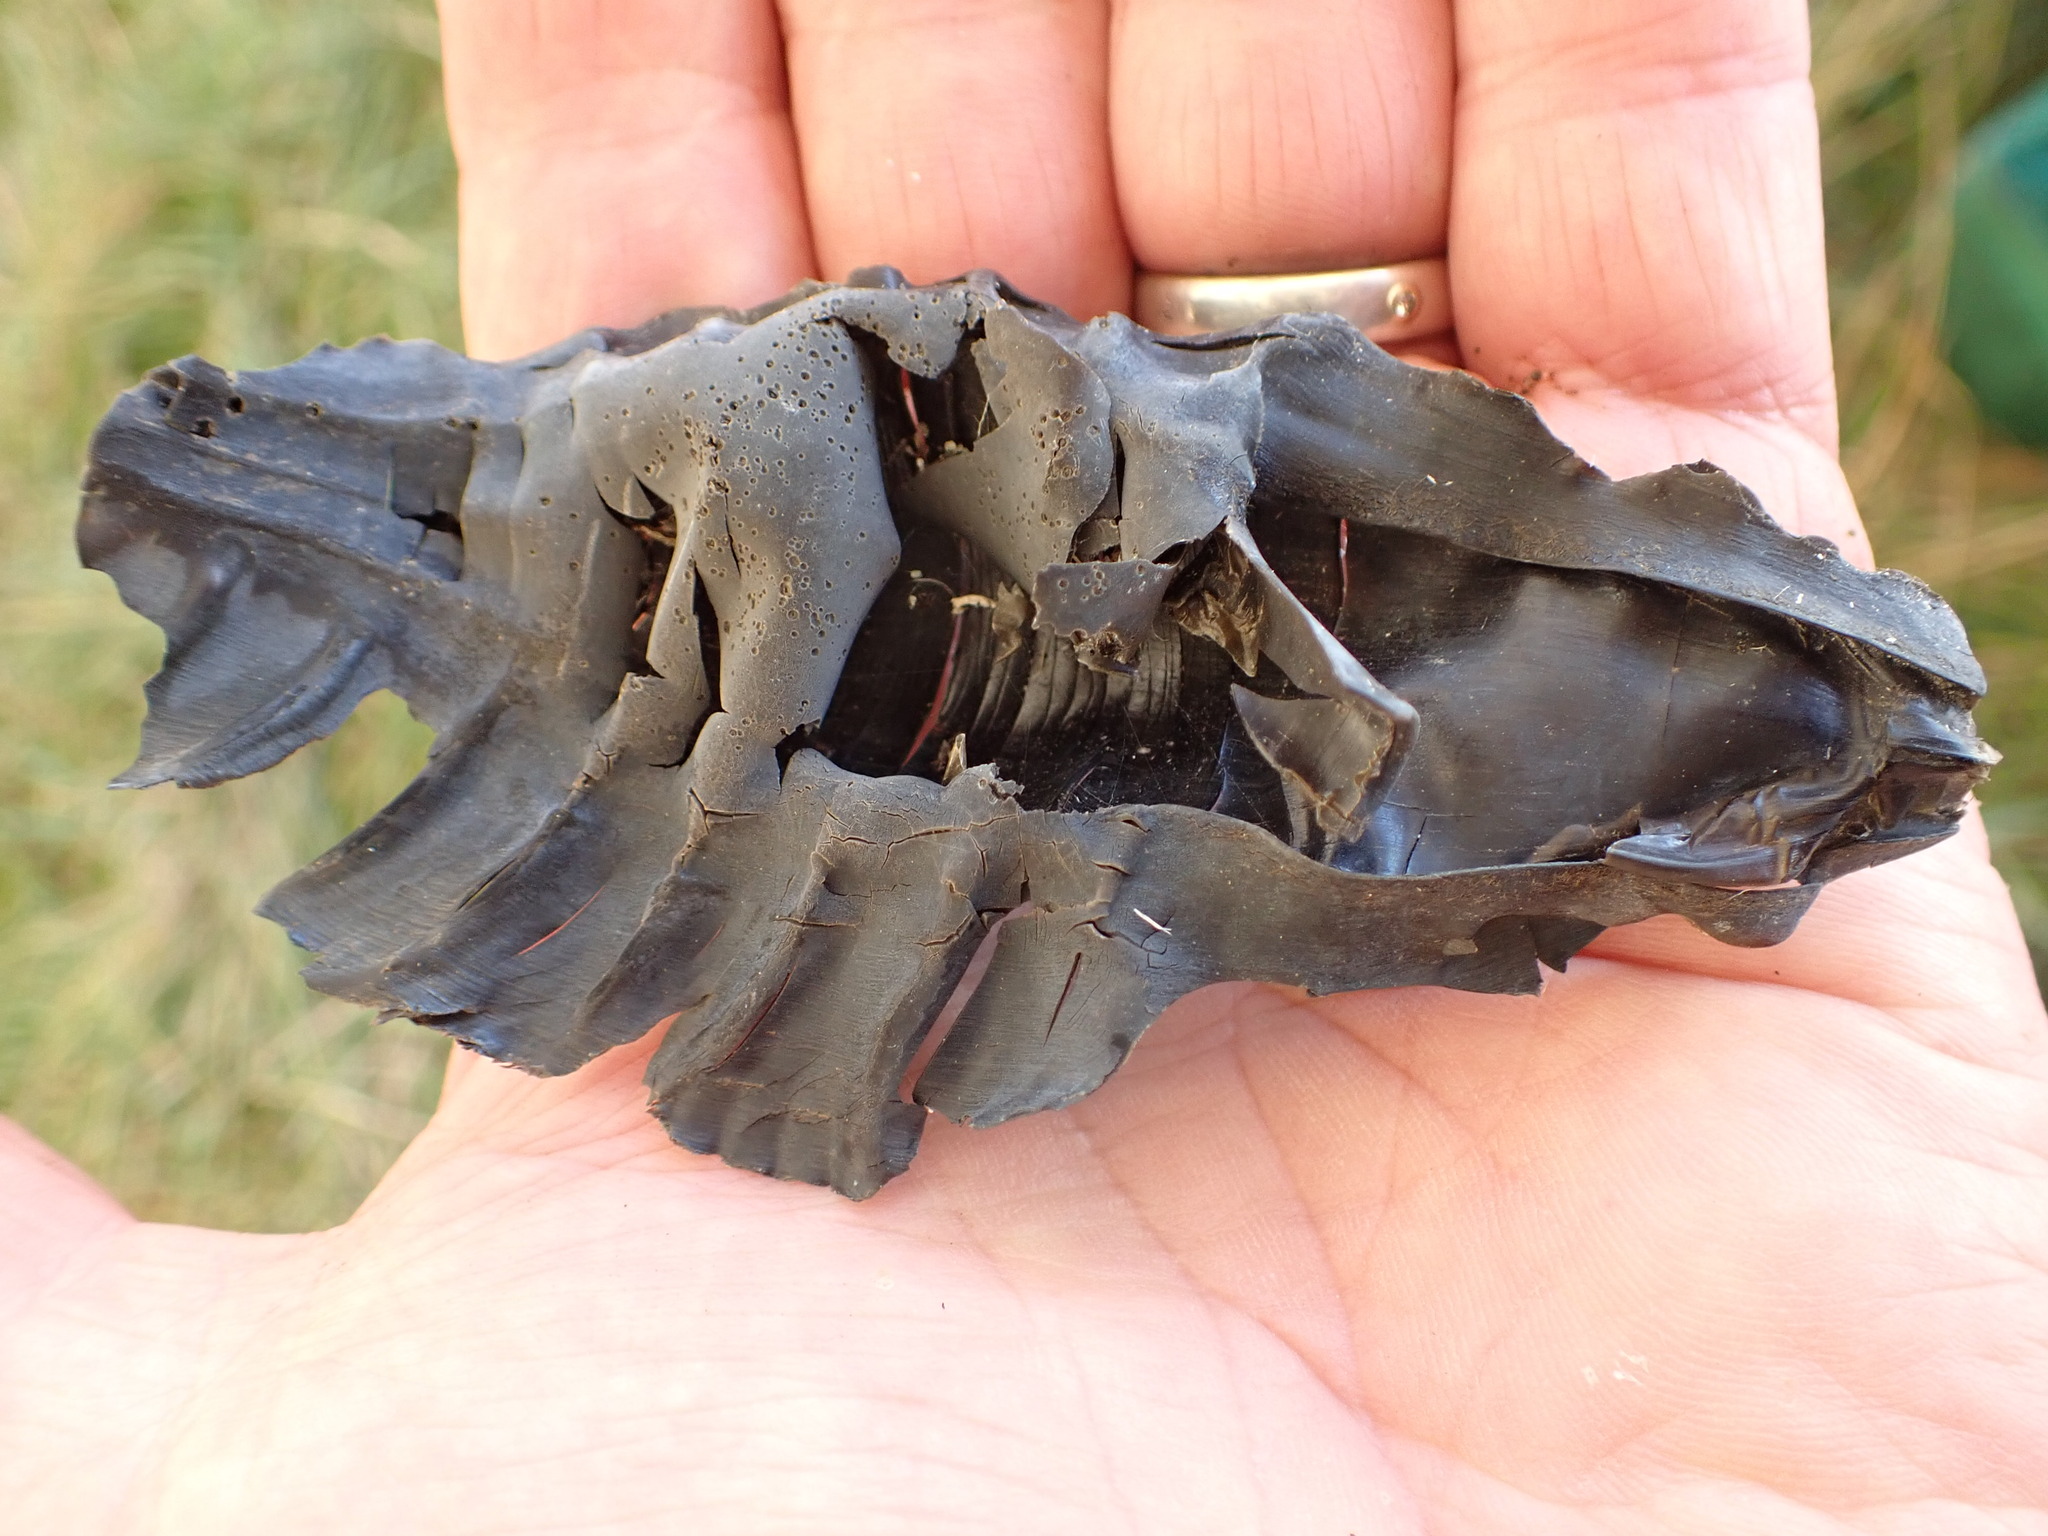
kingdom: Animalia
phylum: Chordata
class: Holocephali
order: Chimaeriformes
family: Callorhinchidae
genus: Callorhinchus
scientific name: Callorhinchus milii
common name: Elephant fish
